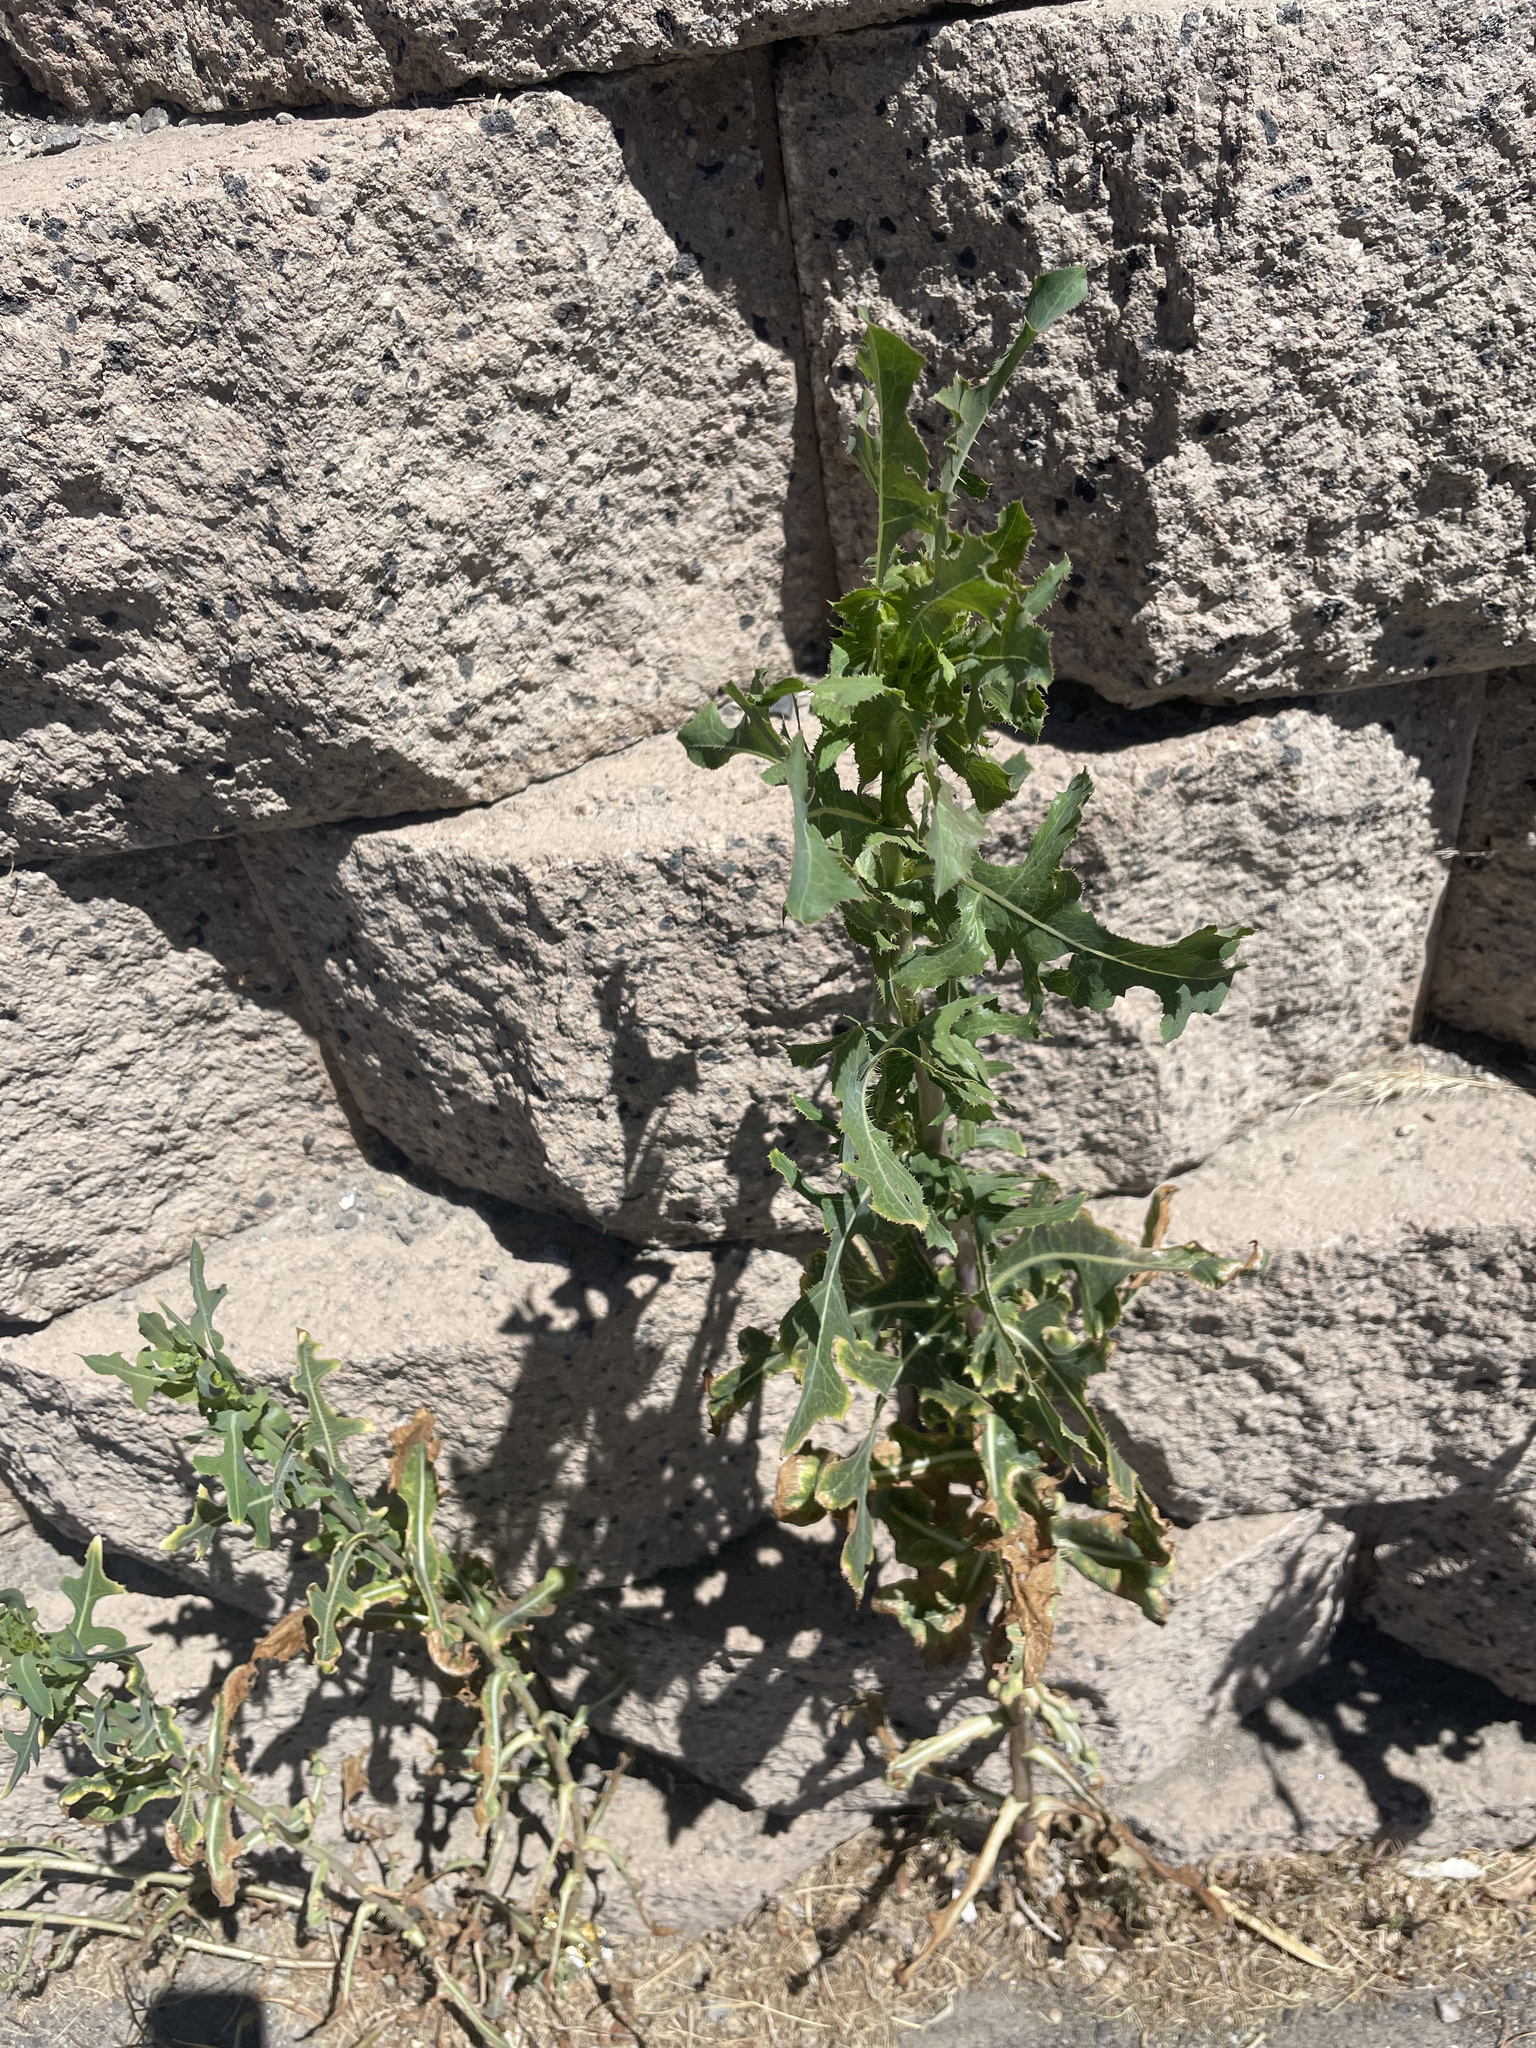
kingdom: Plantae
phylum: Tracheophyta
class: Magnoliopsida
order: Asterales
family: Asteraceae
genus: Lactuca
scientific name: Lactuca serriola
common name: Prickly lettuce
